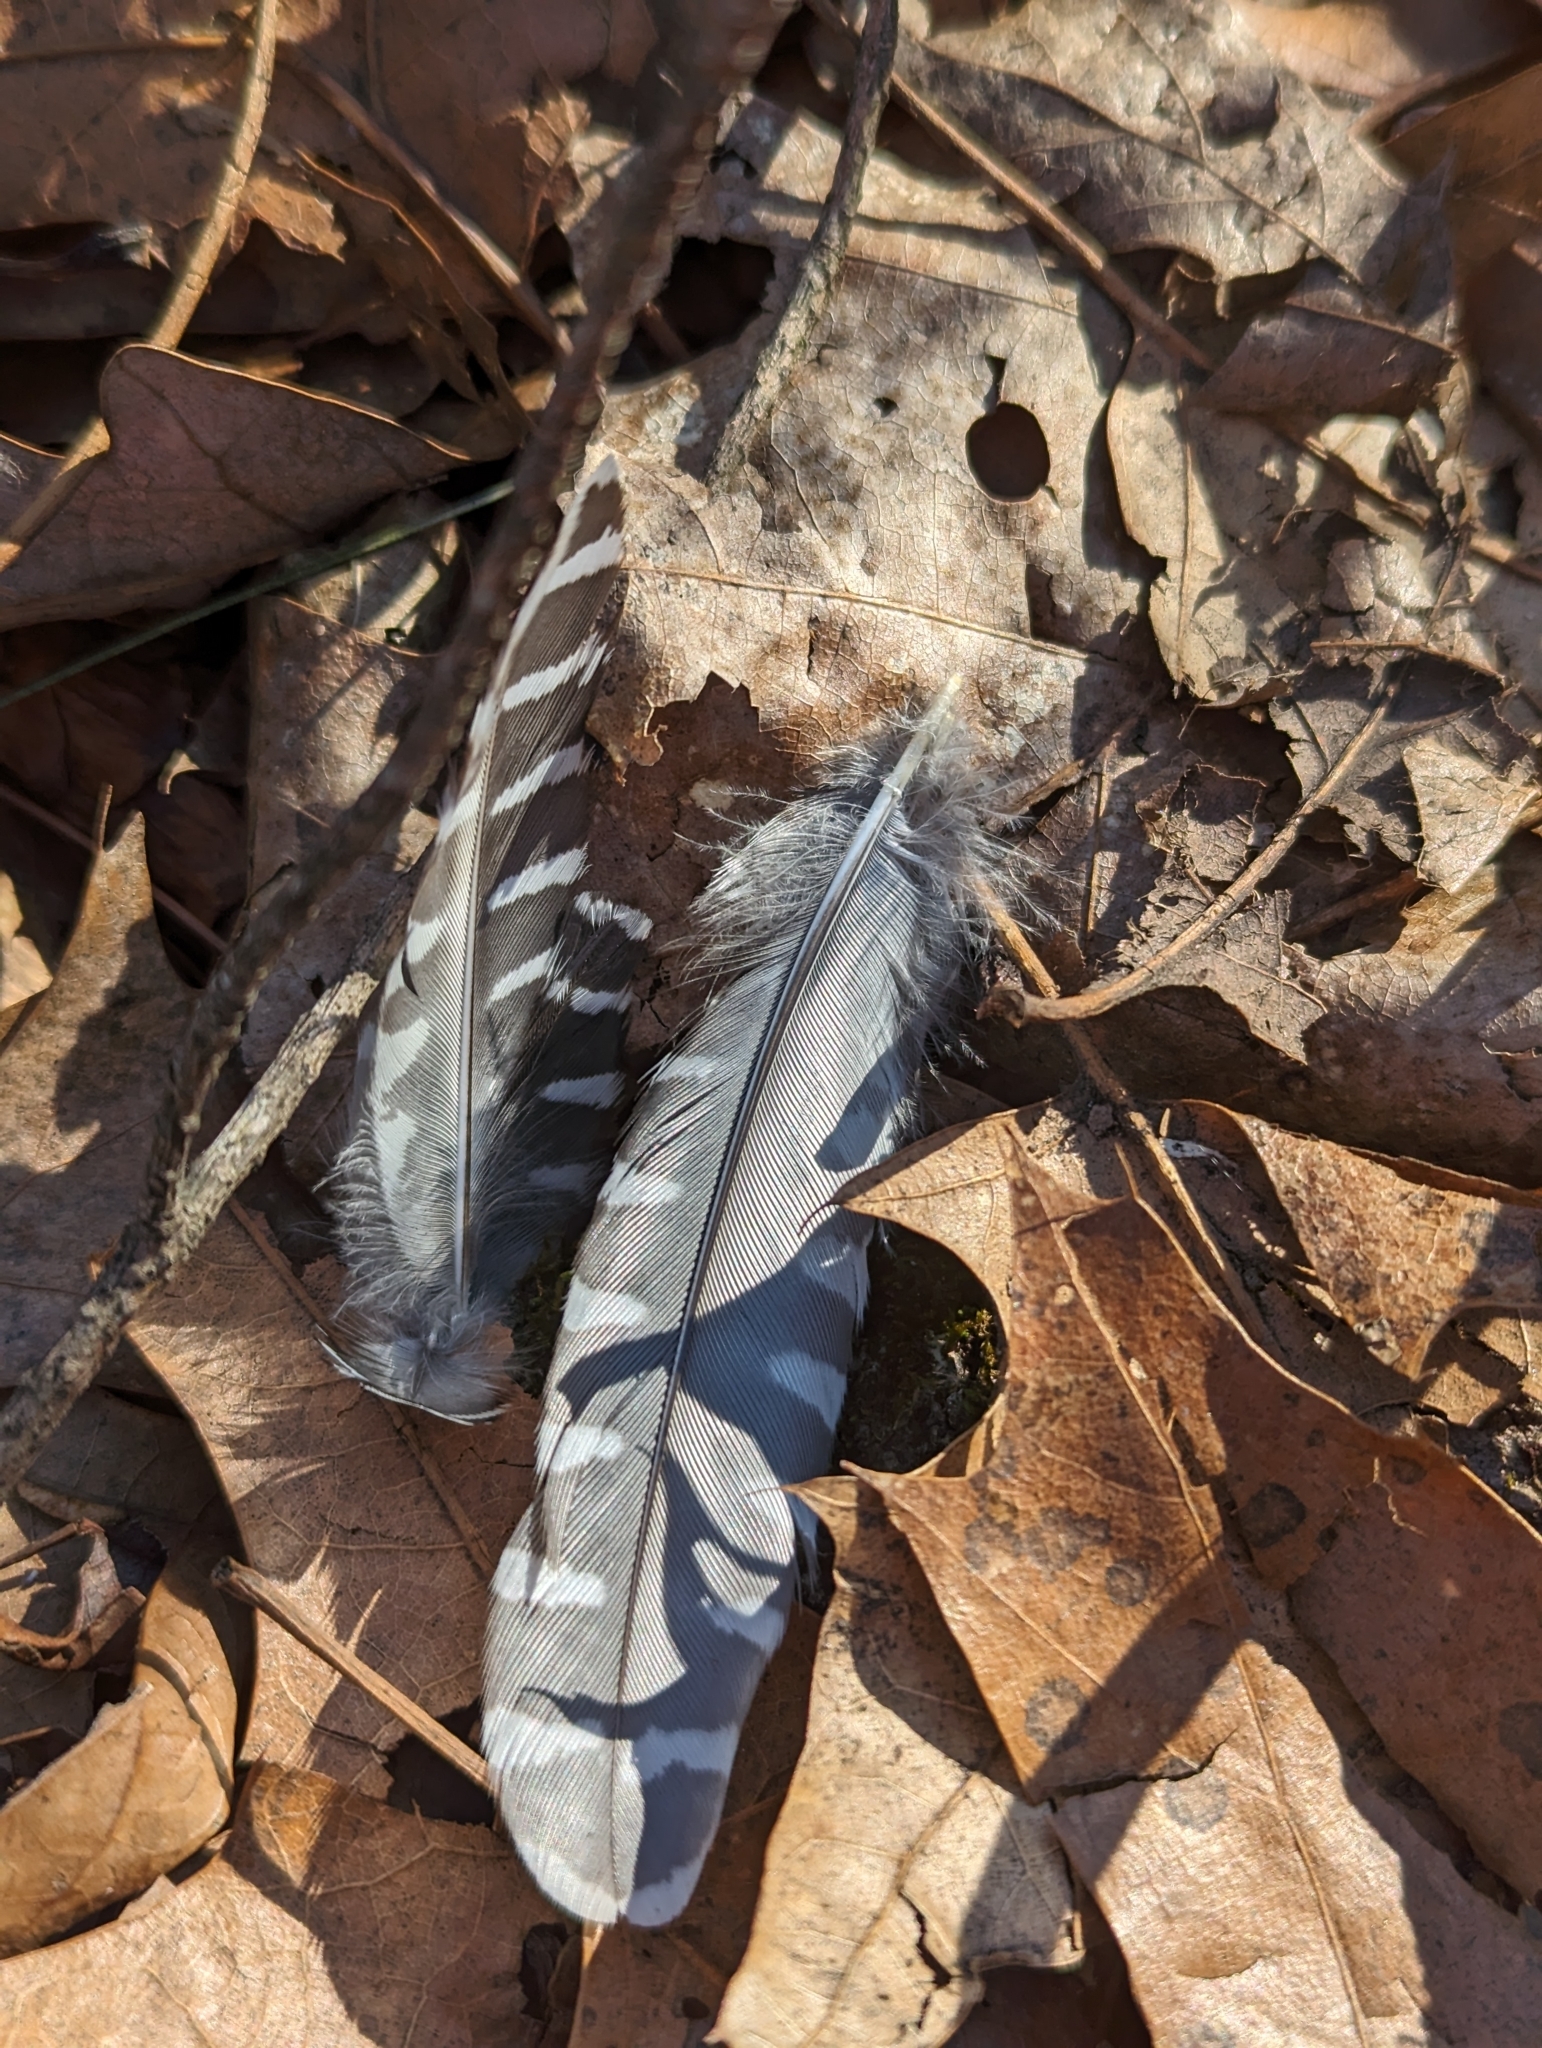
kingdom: Animalia
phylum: Chordata
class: Aves
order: Piciformes
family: Picidae
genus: Melanerpes
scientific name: Melanerpes carolinus
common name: Red-bellied woodpecker
